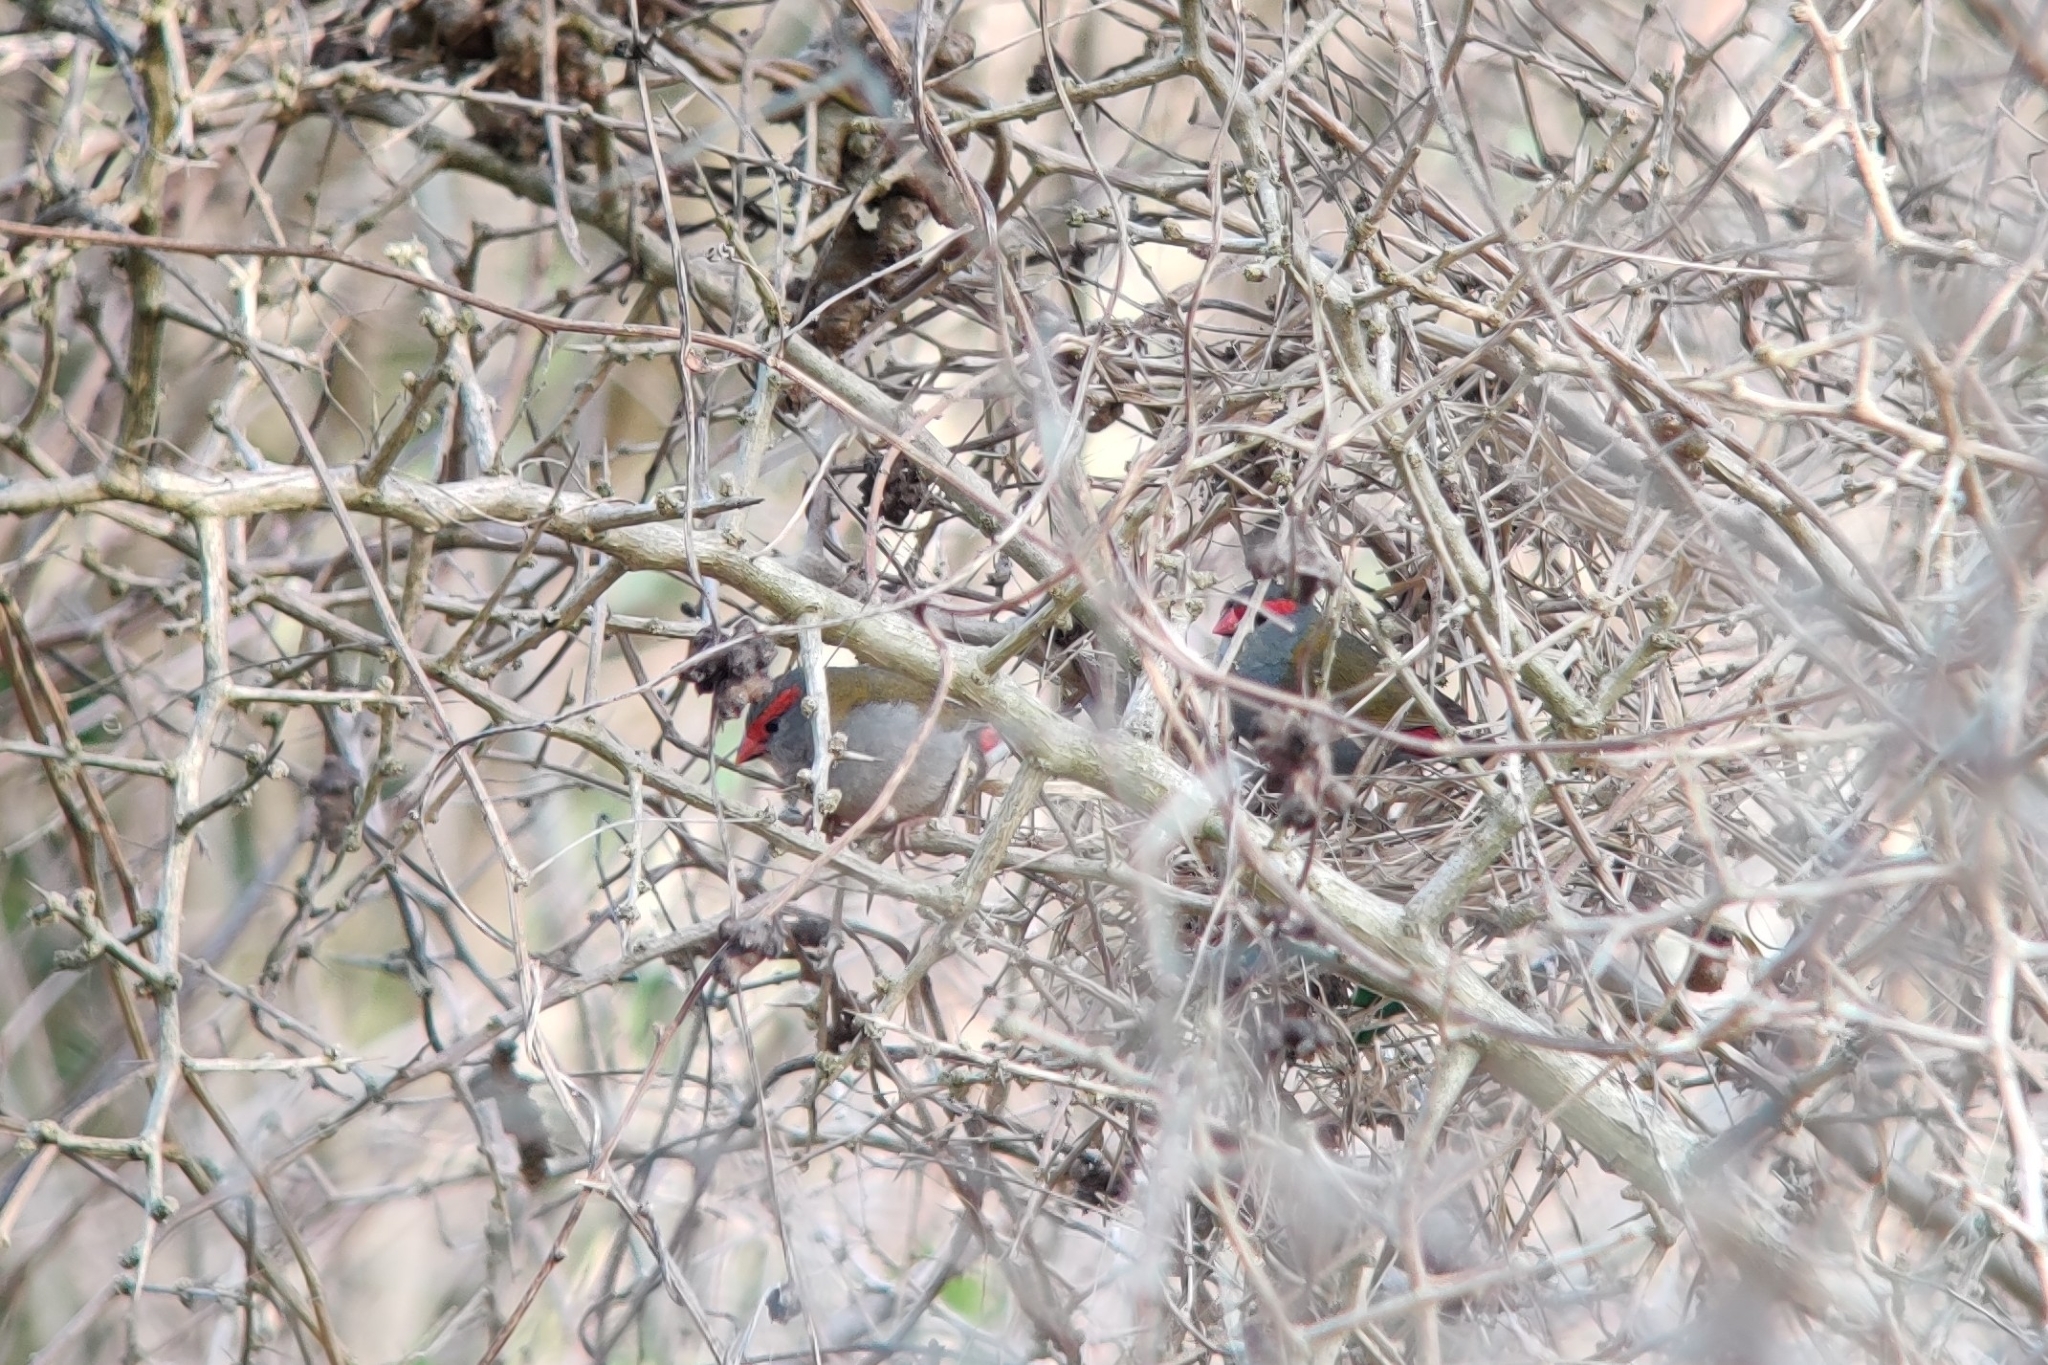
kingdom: Animalia
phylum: Chordata
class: Aves
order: Passeriformes
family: Estrildidae
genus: Neochmia
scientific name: Neochmia temporalis
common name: Red-browed finch
